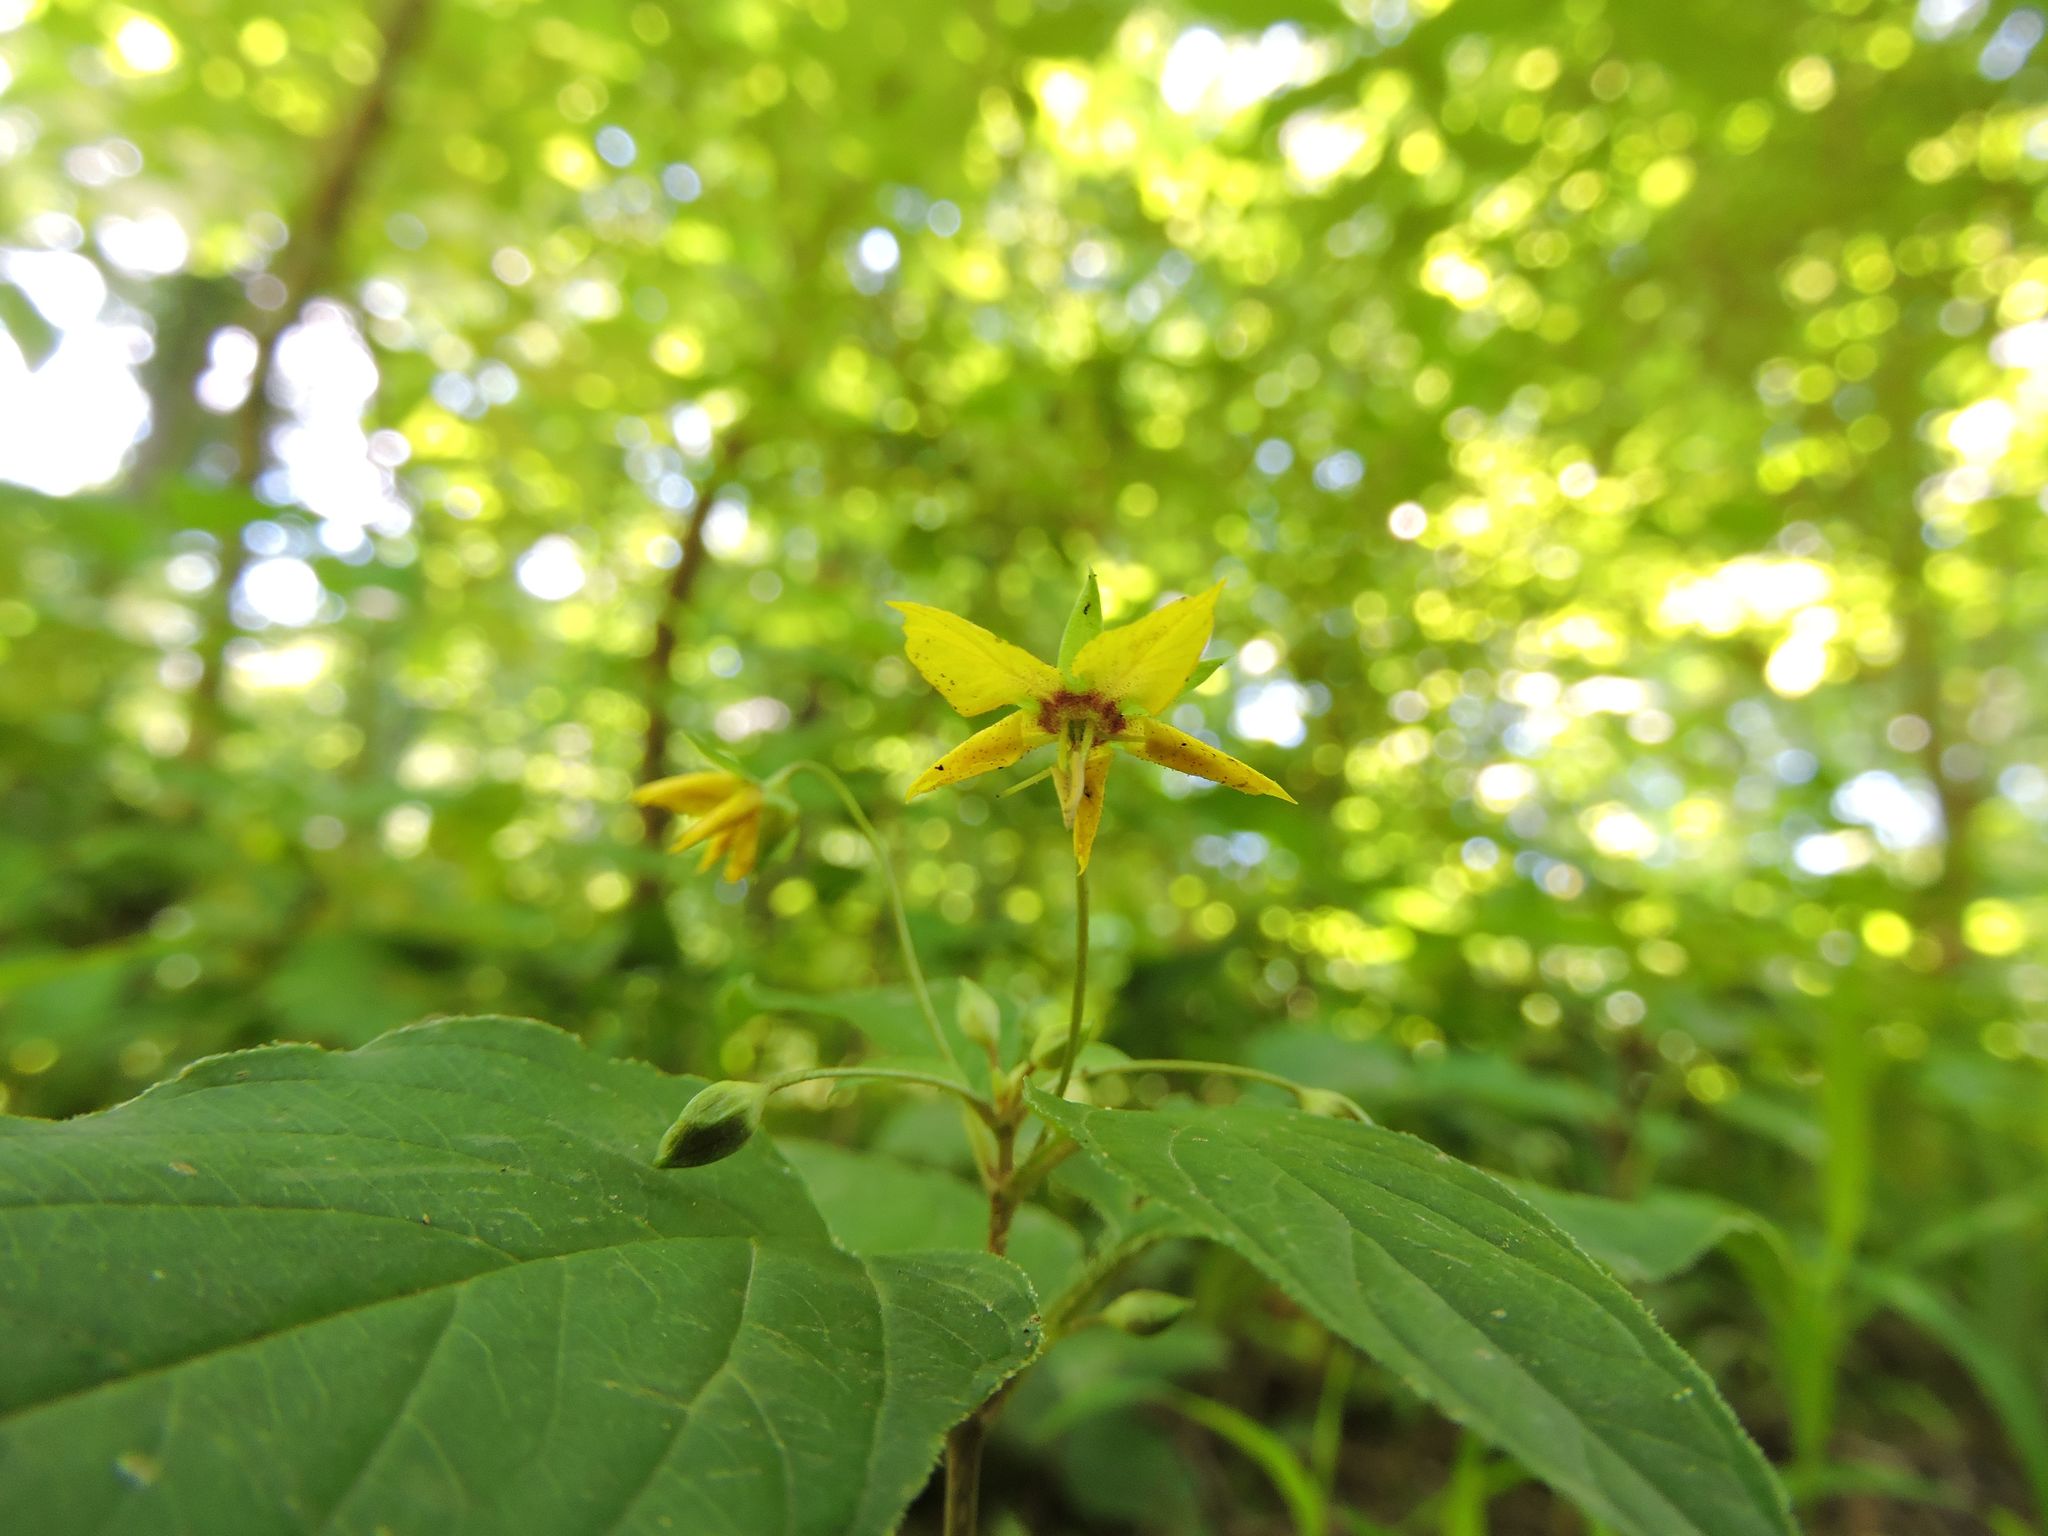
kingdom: Plantae
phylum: Tracheophyta
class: Magnoliopsida
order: Ericales
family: Primulaceae
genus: Lysimachia
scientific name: Lysimachia ciliata
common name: Fringed loosestrife
